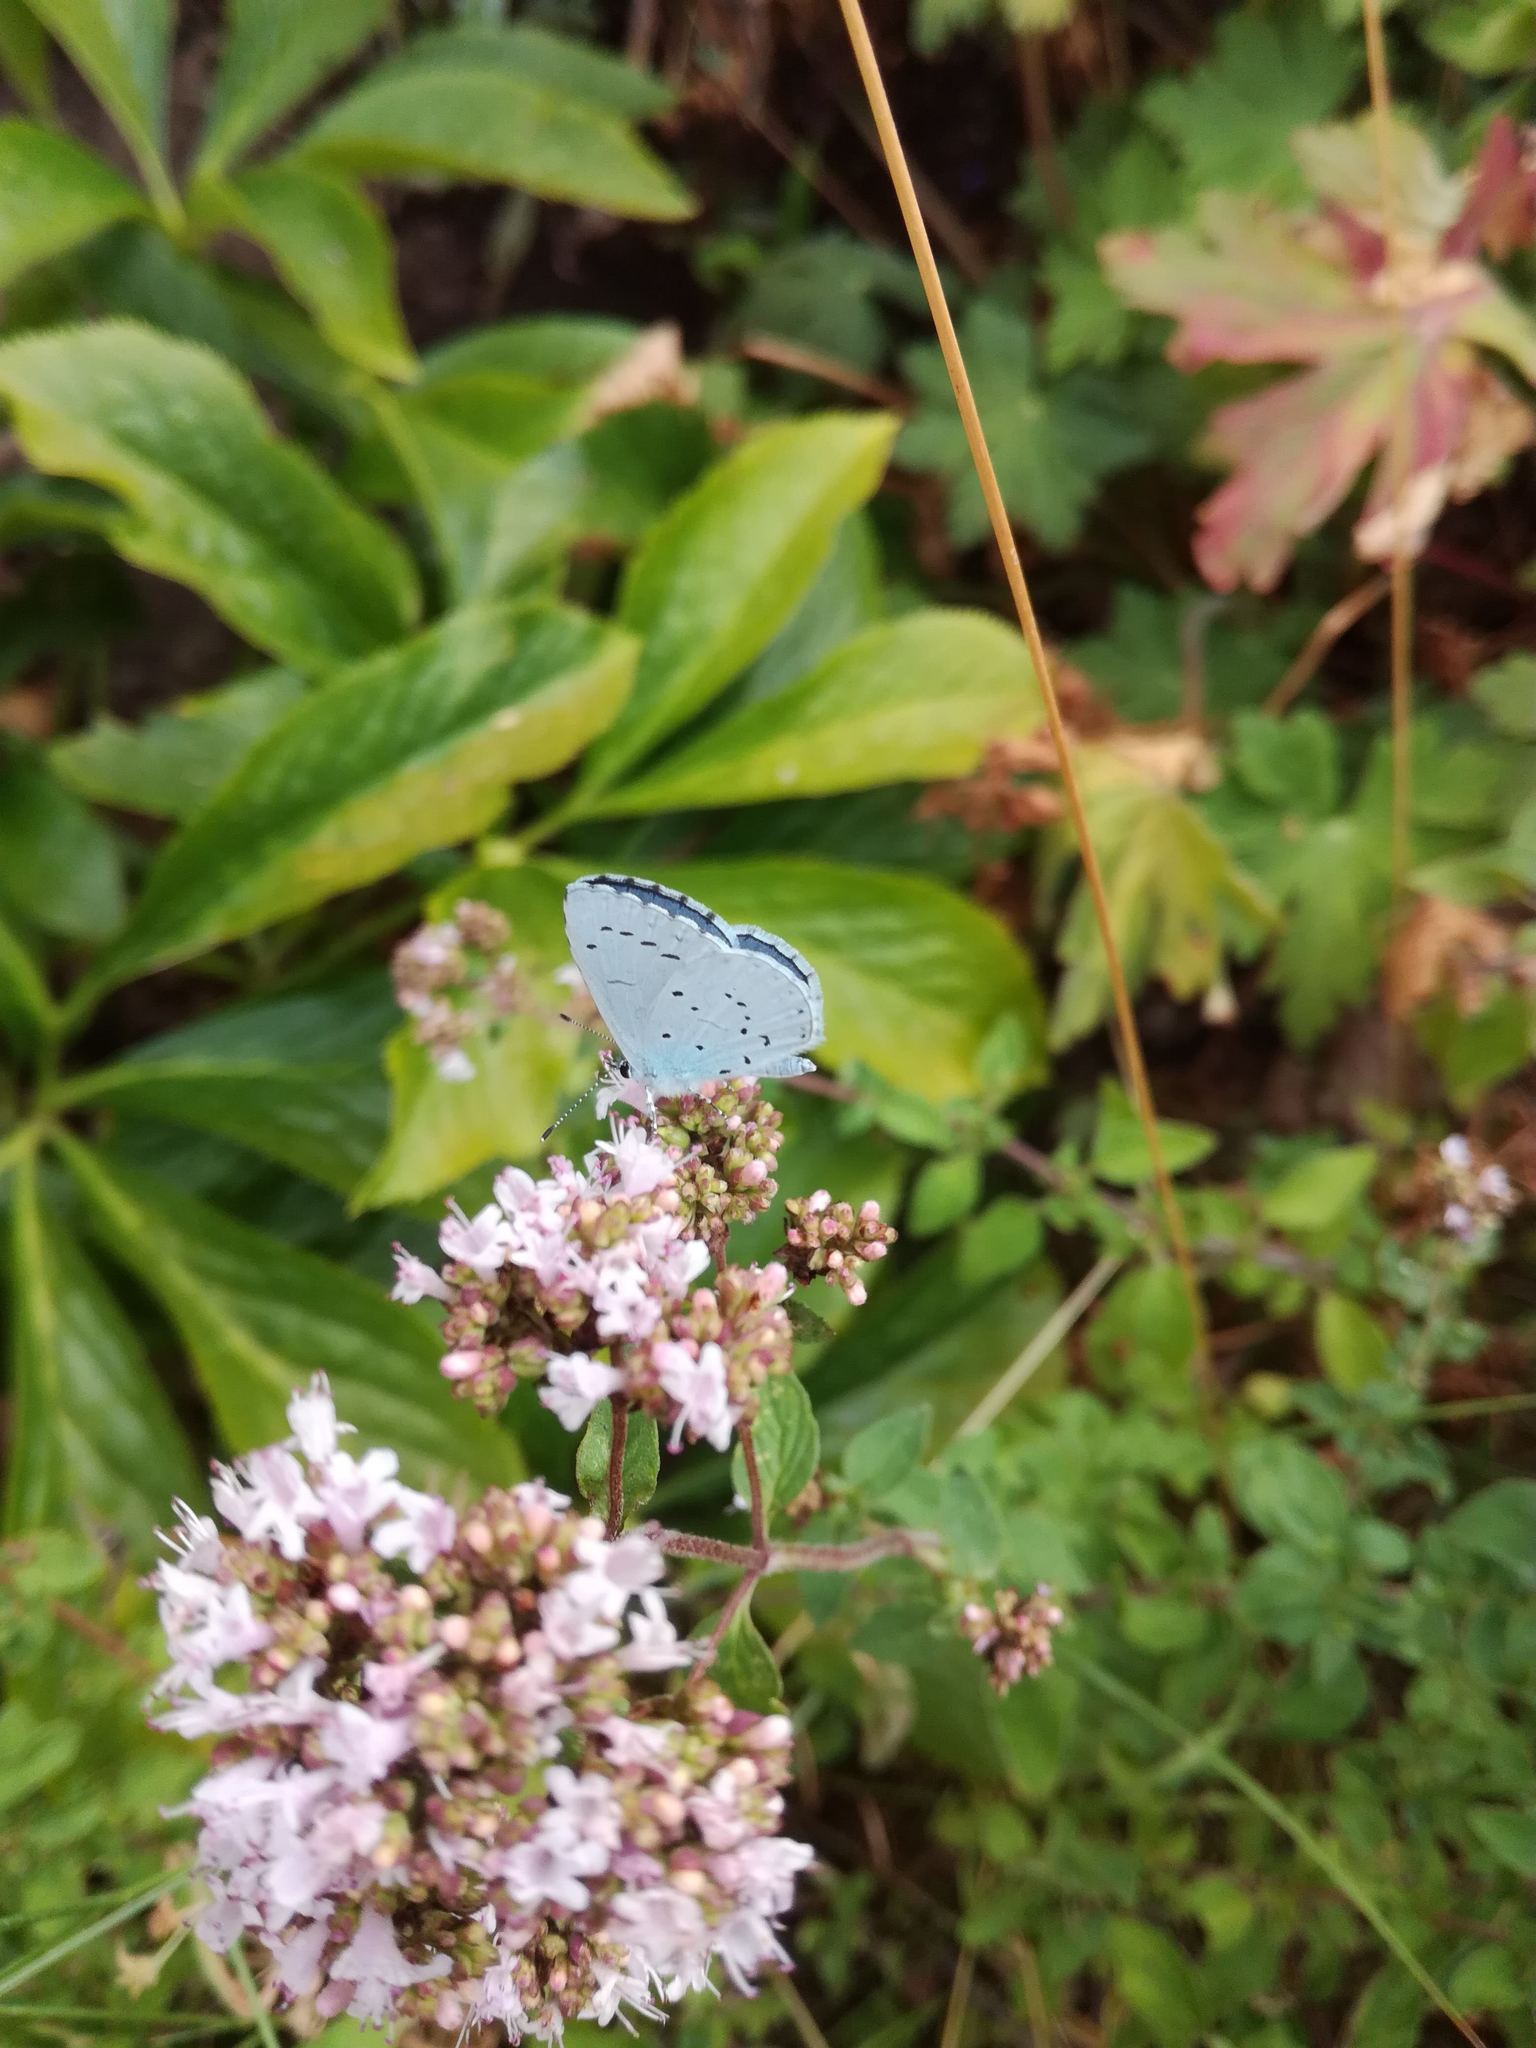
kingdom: Animalia
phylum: Arthropoda
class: Insecta
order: Lepidoptera
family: Lycaenidae
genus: Celastrina
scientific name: Celastrina argiolus
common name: Holly blue
